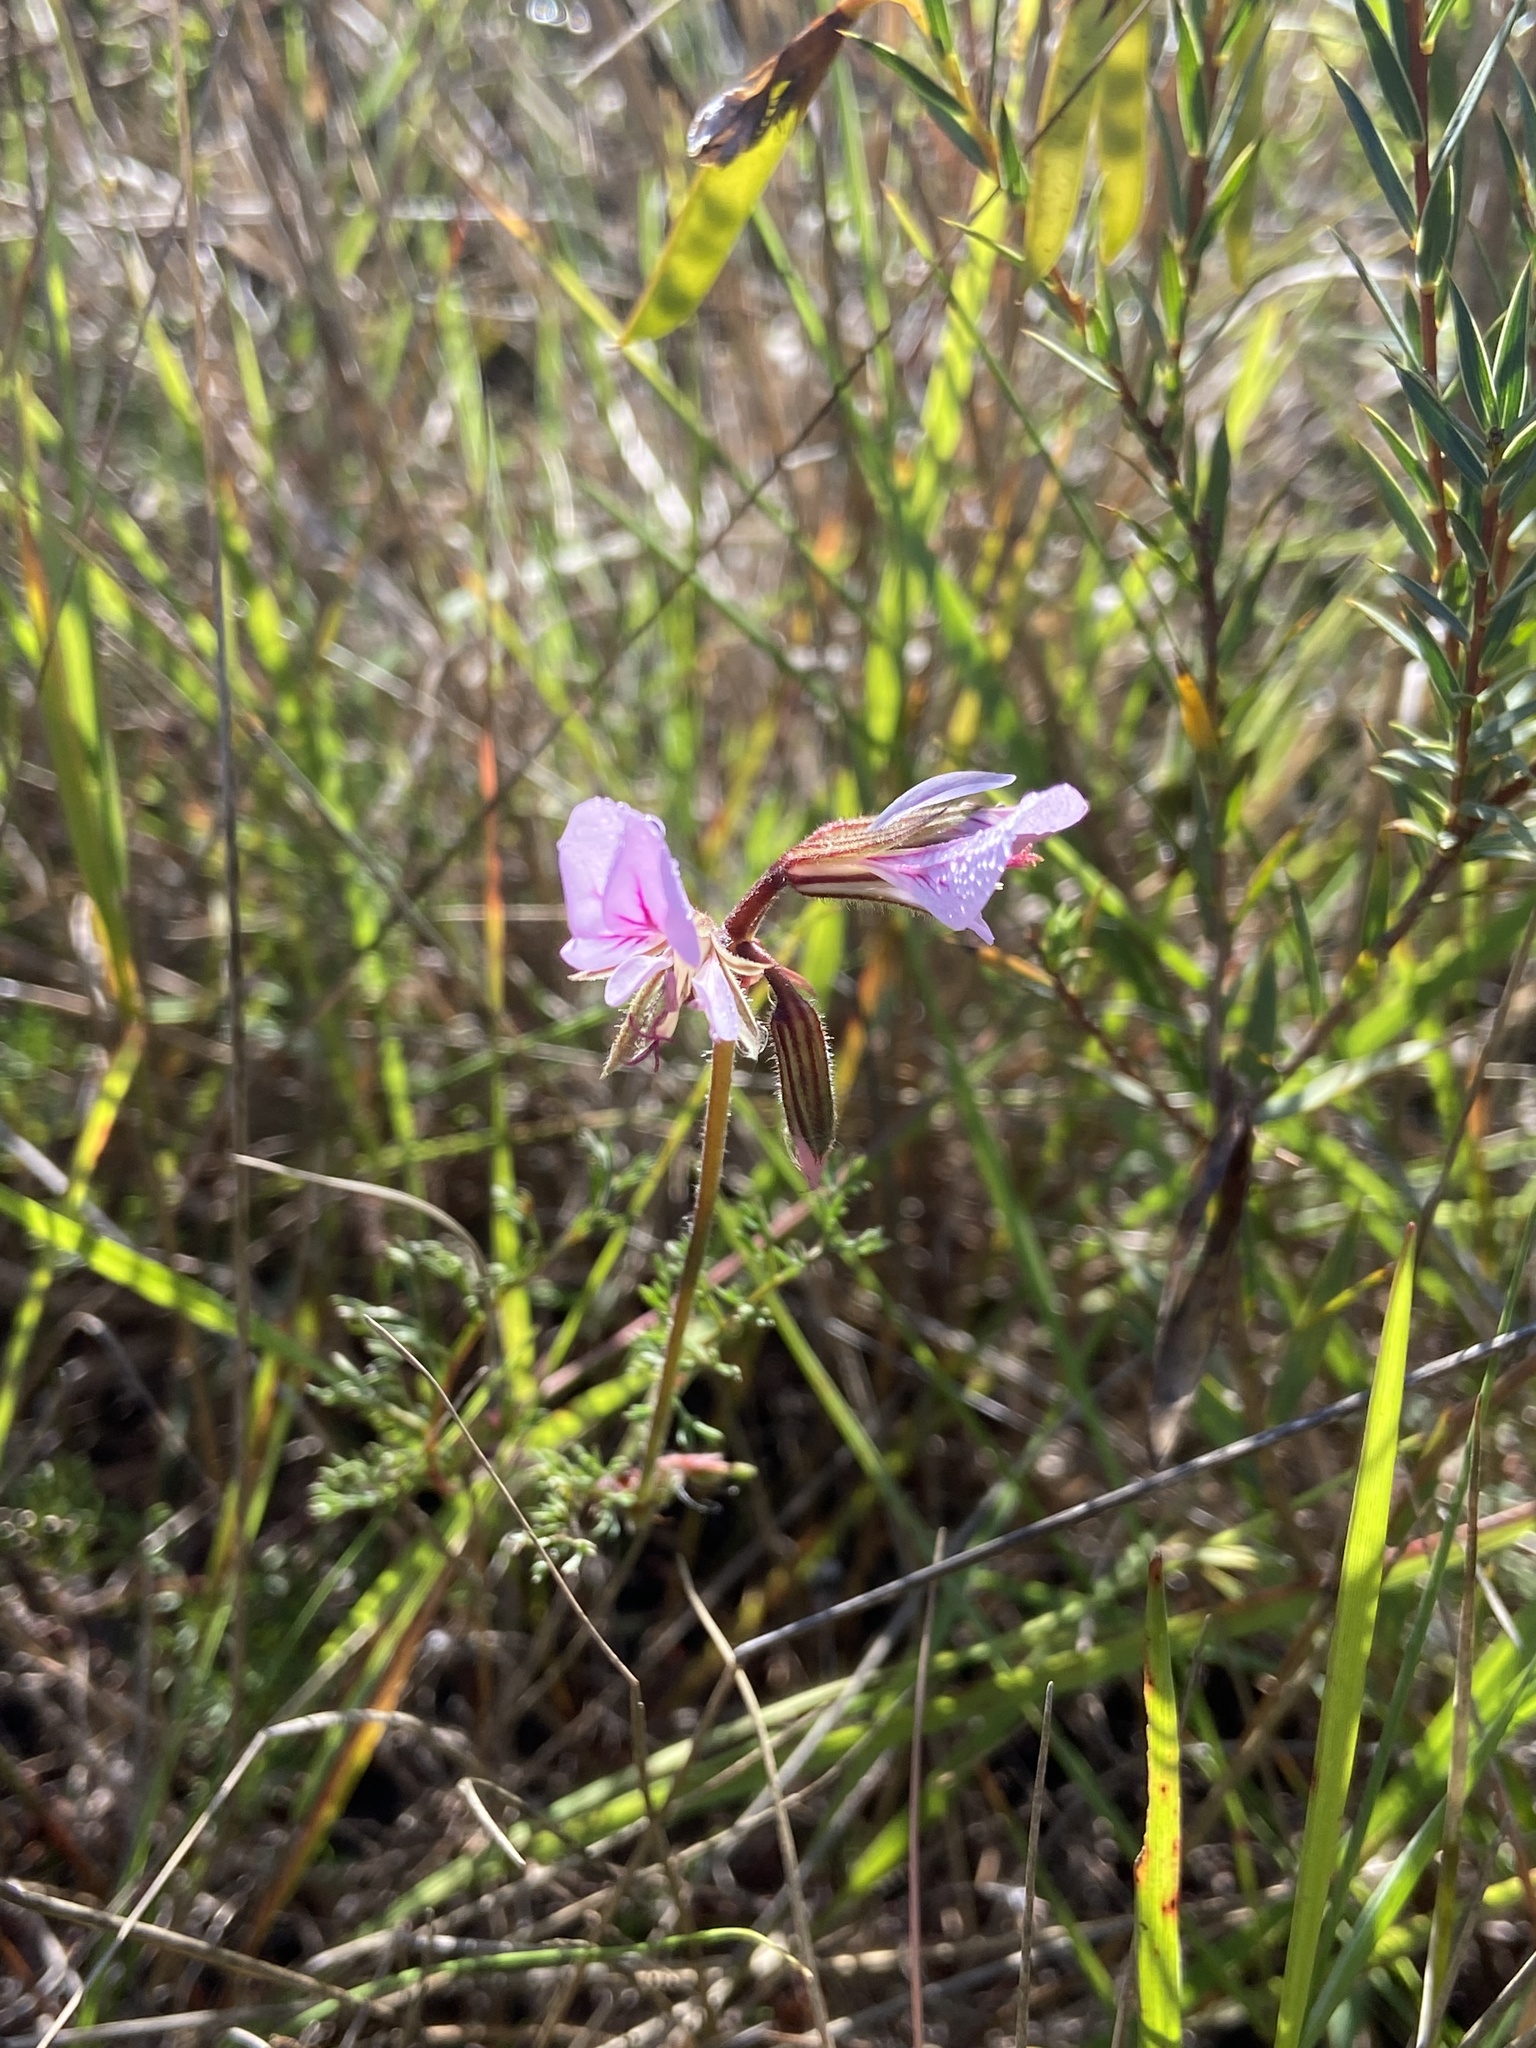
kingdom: Plantae
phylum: Tracheophyta
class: Magnoliopsida
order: Geraniales
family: Geraniaceae
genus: Pelargonium
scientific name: Pelargonium myrrhifolium
